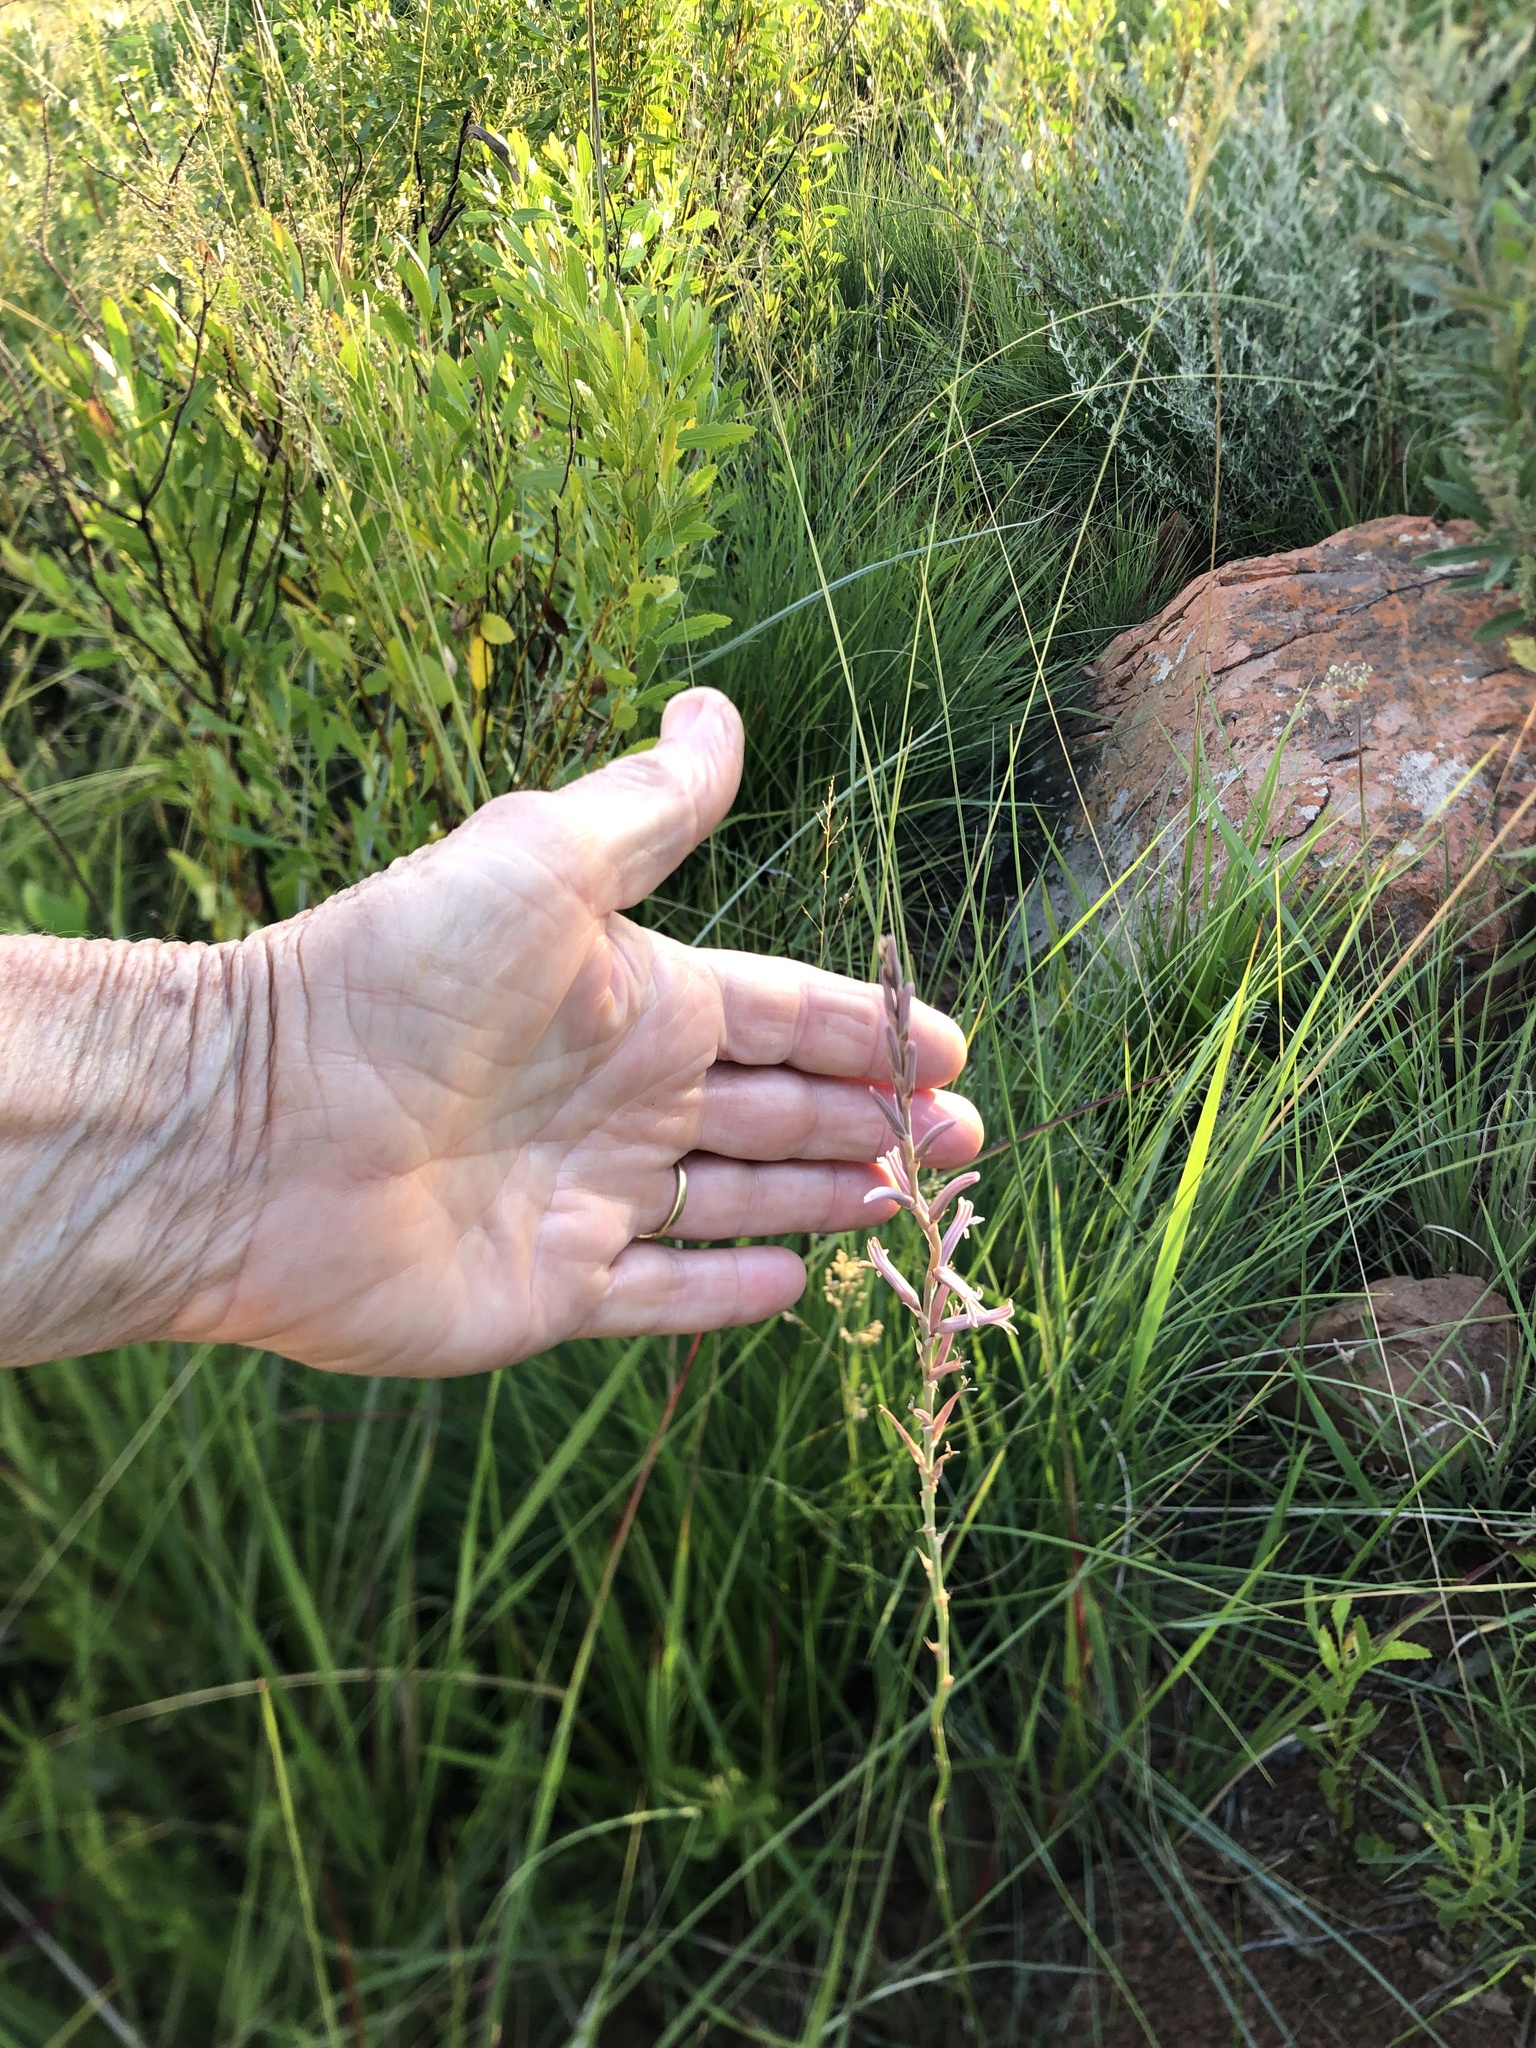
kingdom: Plantae
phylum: Tracheophyta
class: Liliopsida
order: Asparagales
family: Asphodelaceae
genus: Aloe
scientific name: Aloe bergeriana
